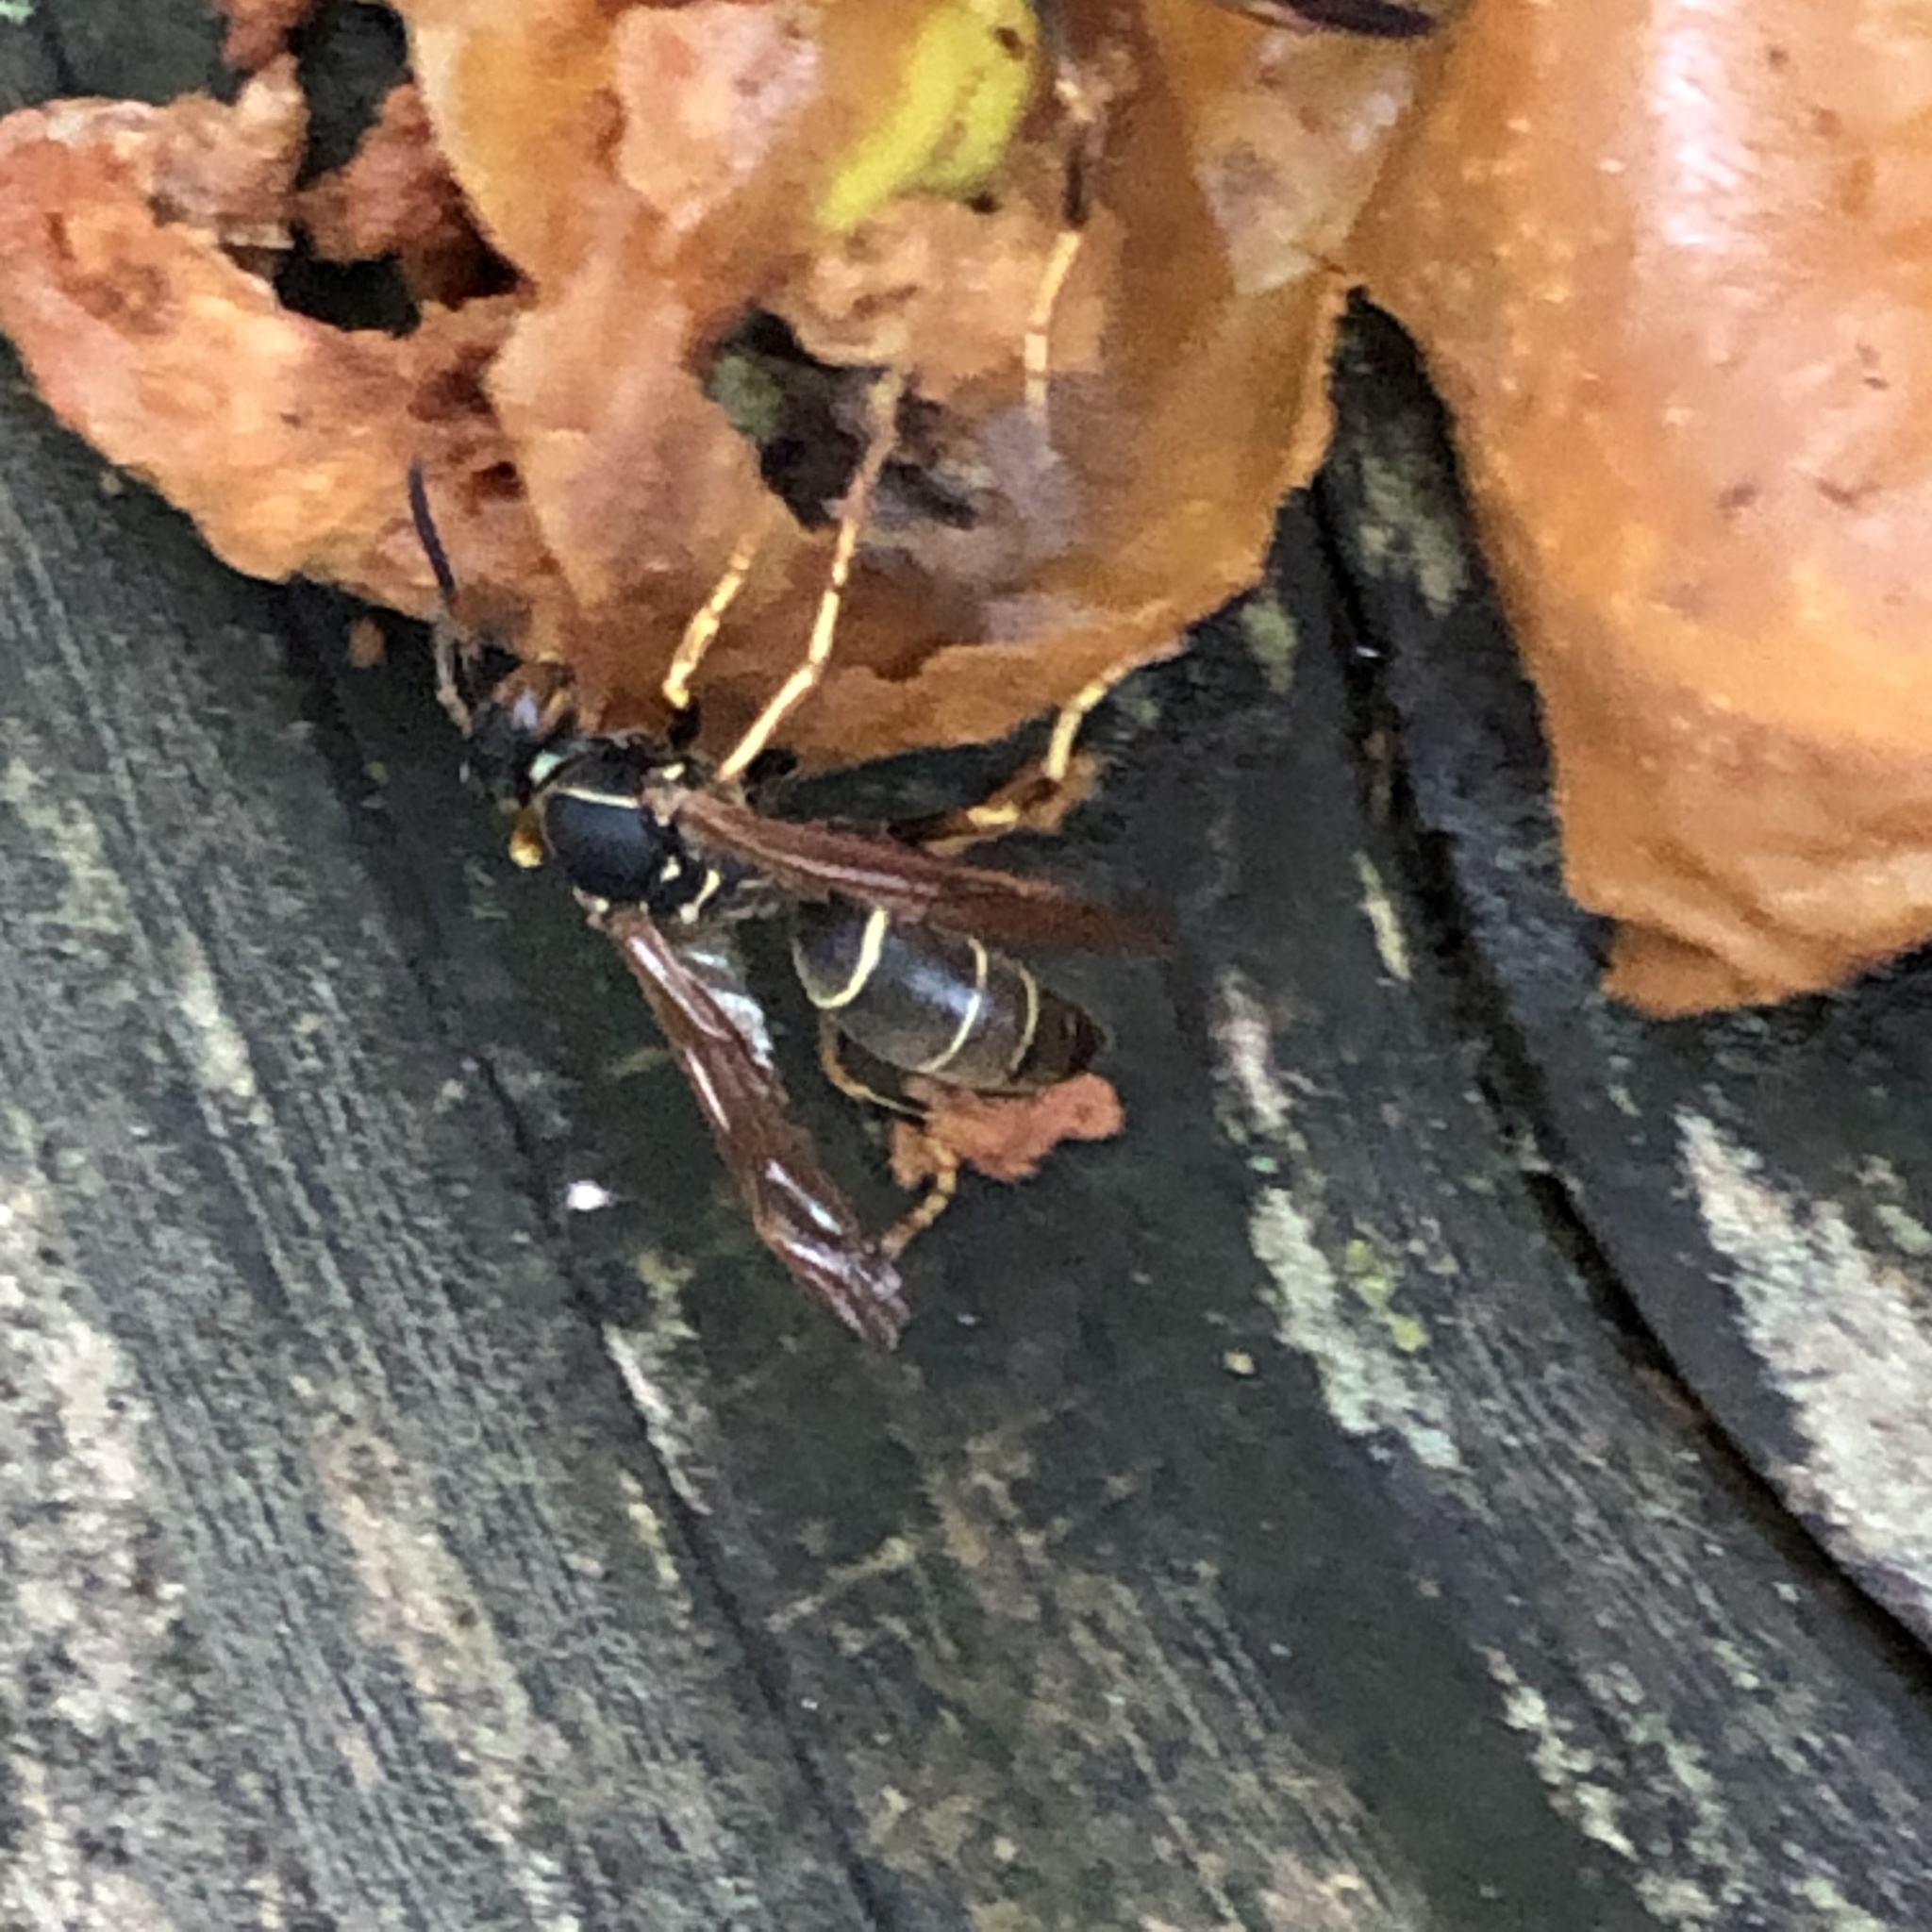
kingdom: Animalia
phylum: Arthropoda
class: Insecta
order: Hymenoptera
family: Eumenidae
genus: Polistes
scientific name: Polistes fuscatus
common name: Dark paper wasp
